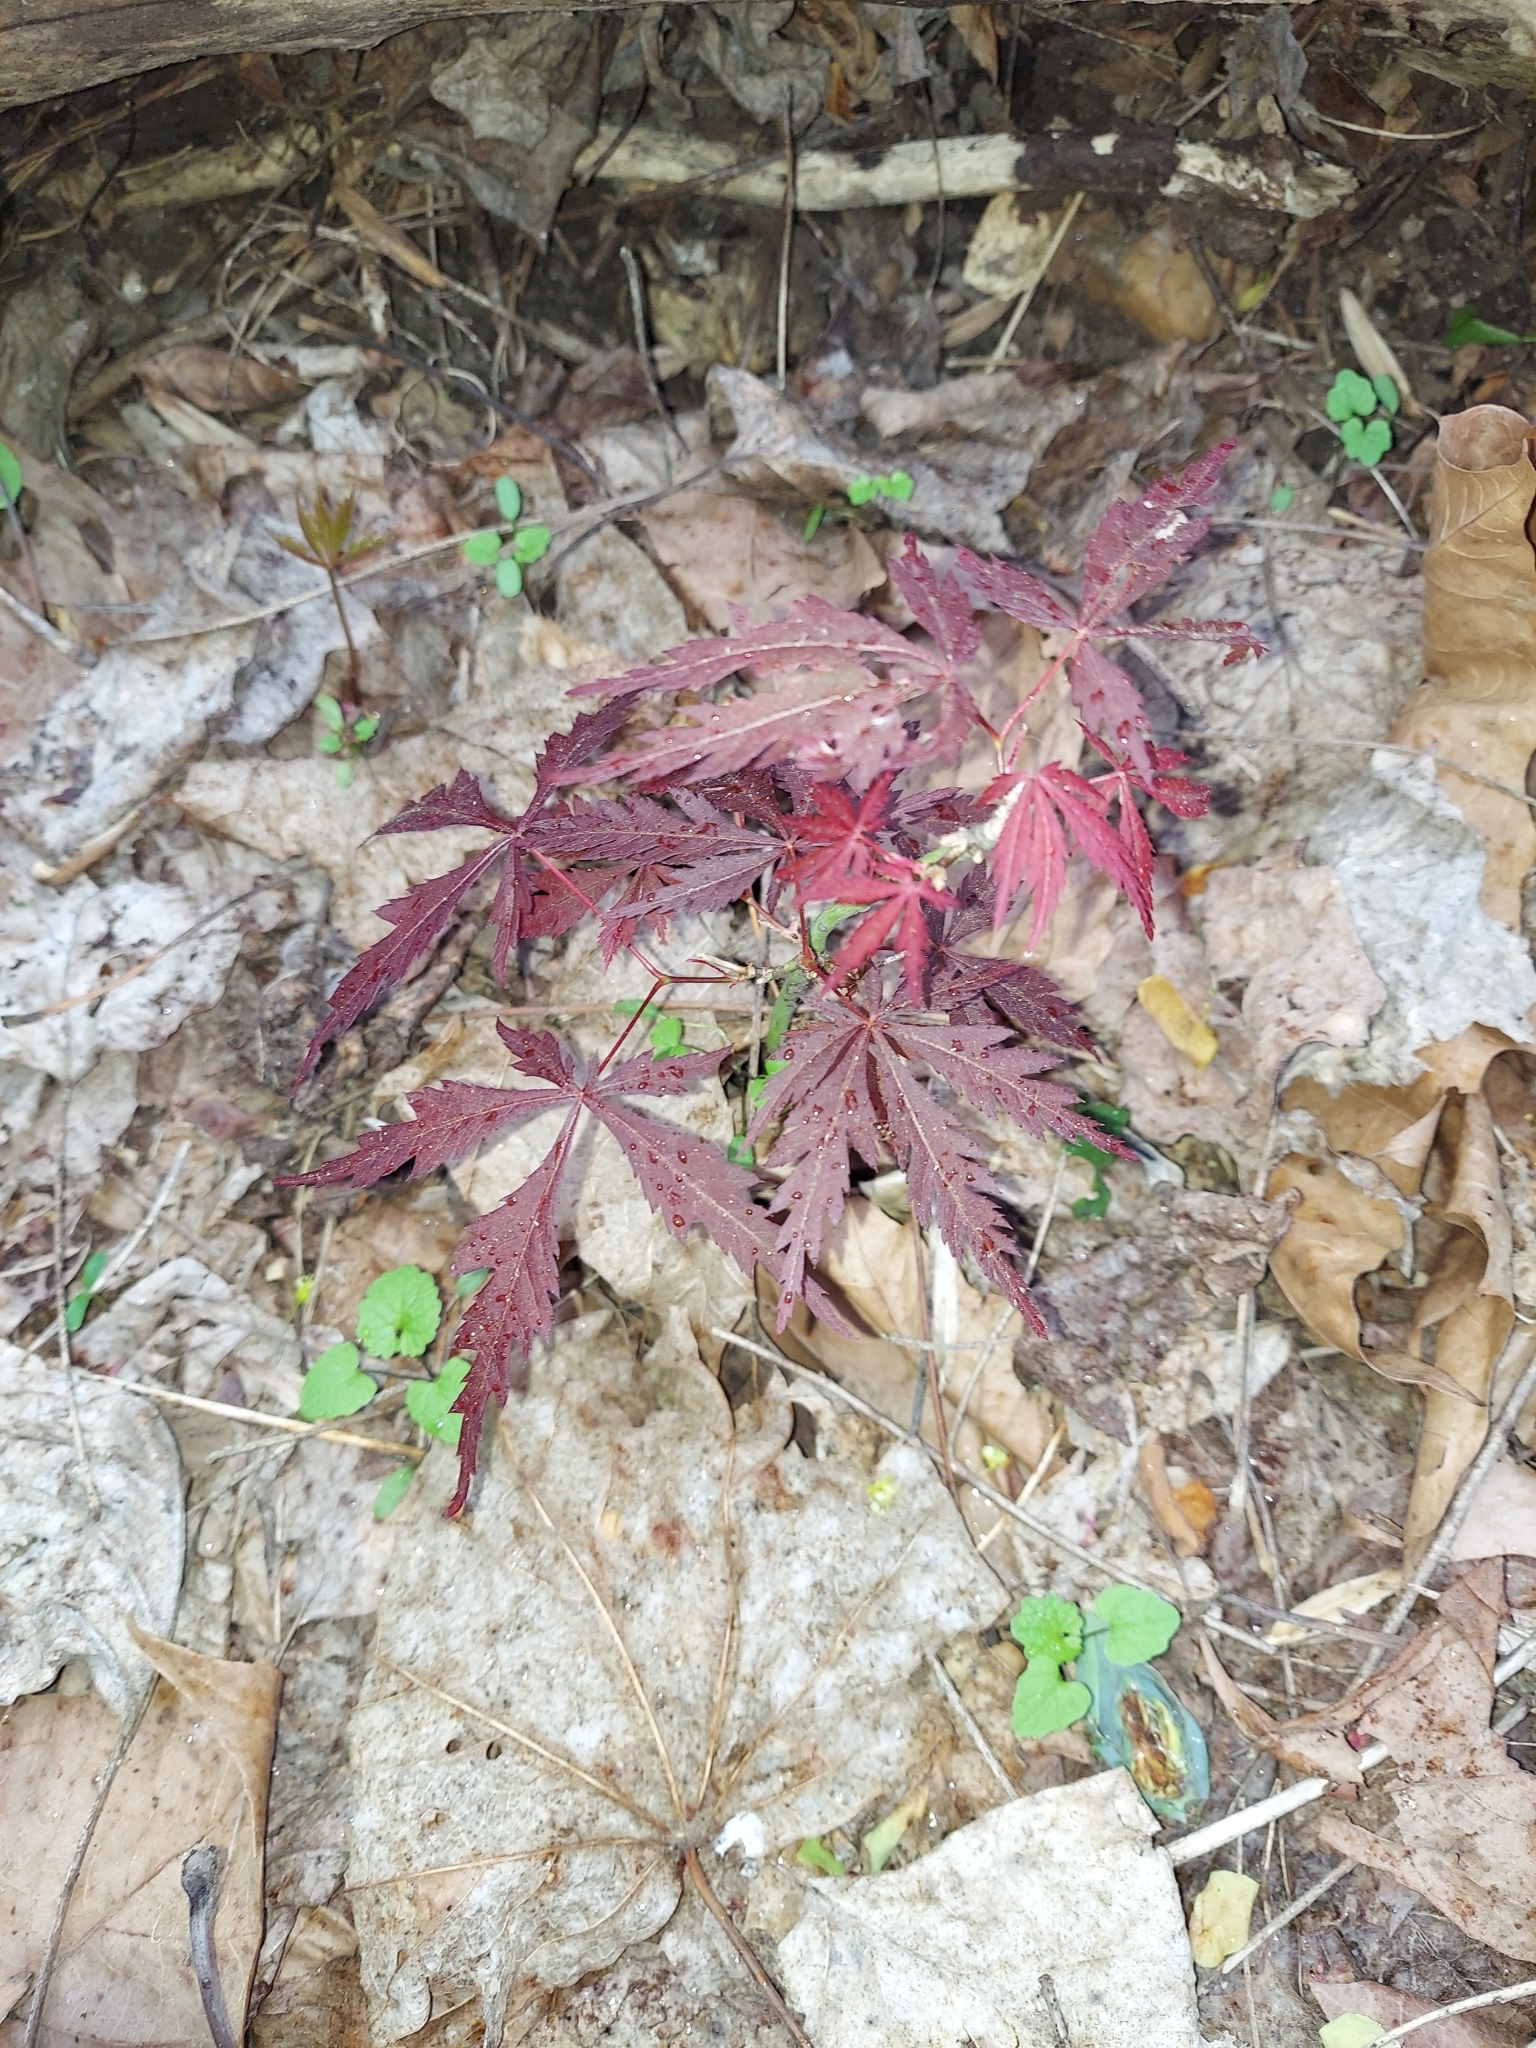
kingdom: Plantae
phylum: Tracheophyta
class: Magnoliopsida
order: Sapindales
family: Sapindaceae
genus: Acer
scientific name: Acer palmatum
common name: Japanese maple
